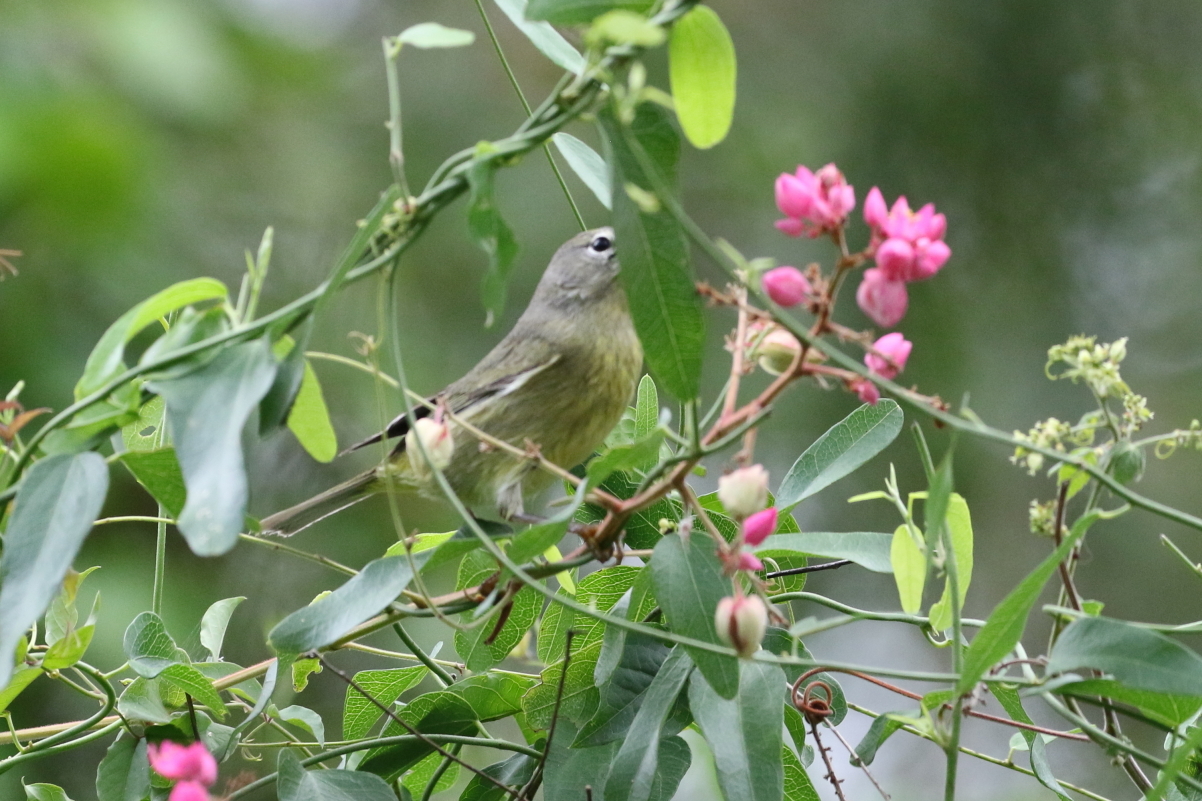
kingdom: Animalia
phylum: Chordata
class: Aves
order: Passeriformes
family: Parulidae
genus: Leiothlypis
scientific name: Leiothlypis celata
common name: Orange-crowned warbler
